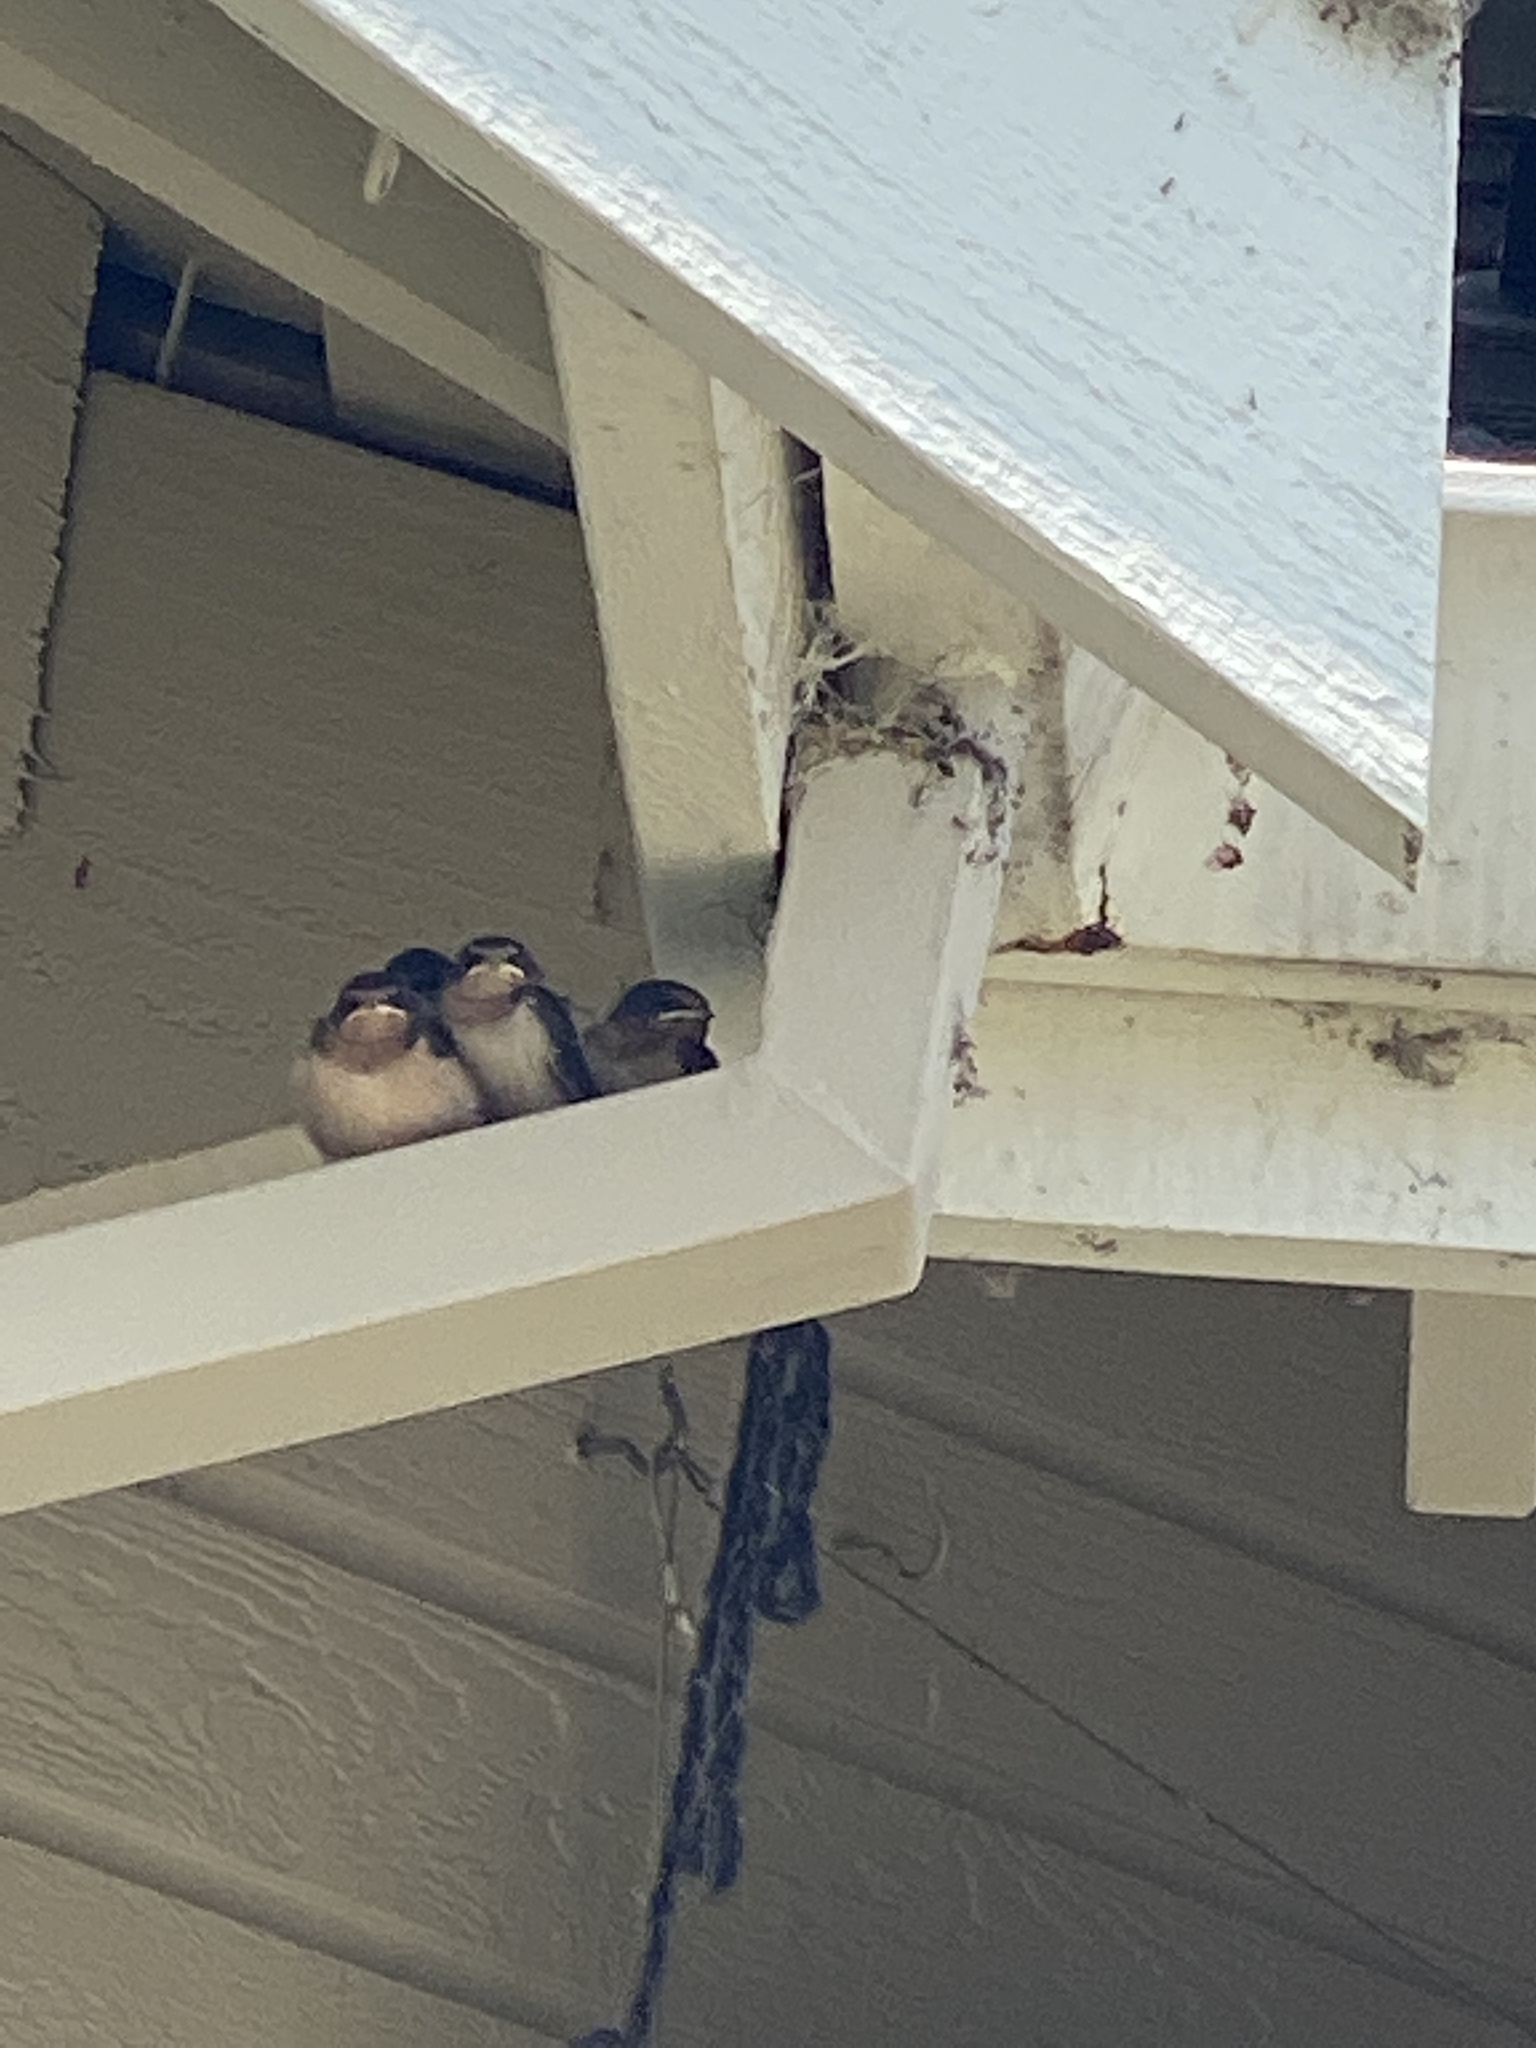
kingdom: Animalia
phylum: Chordata
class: Aves
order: Passeriformes
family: Hirundinidae
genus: Hirundo
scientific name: Hirundo rustica
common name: Barn swallow
